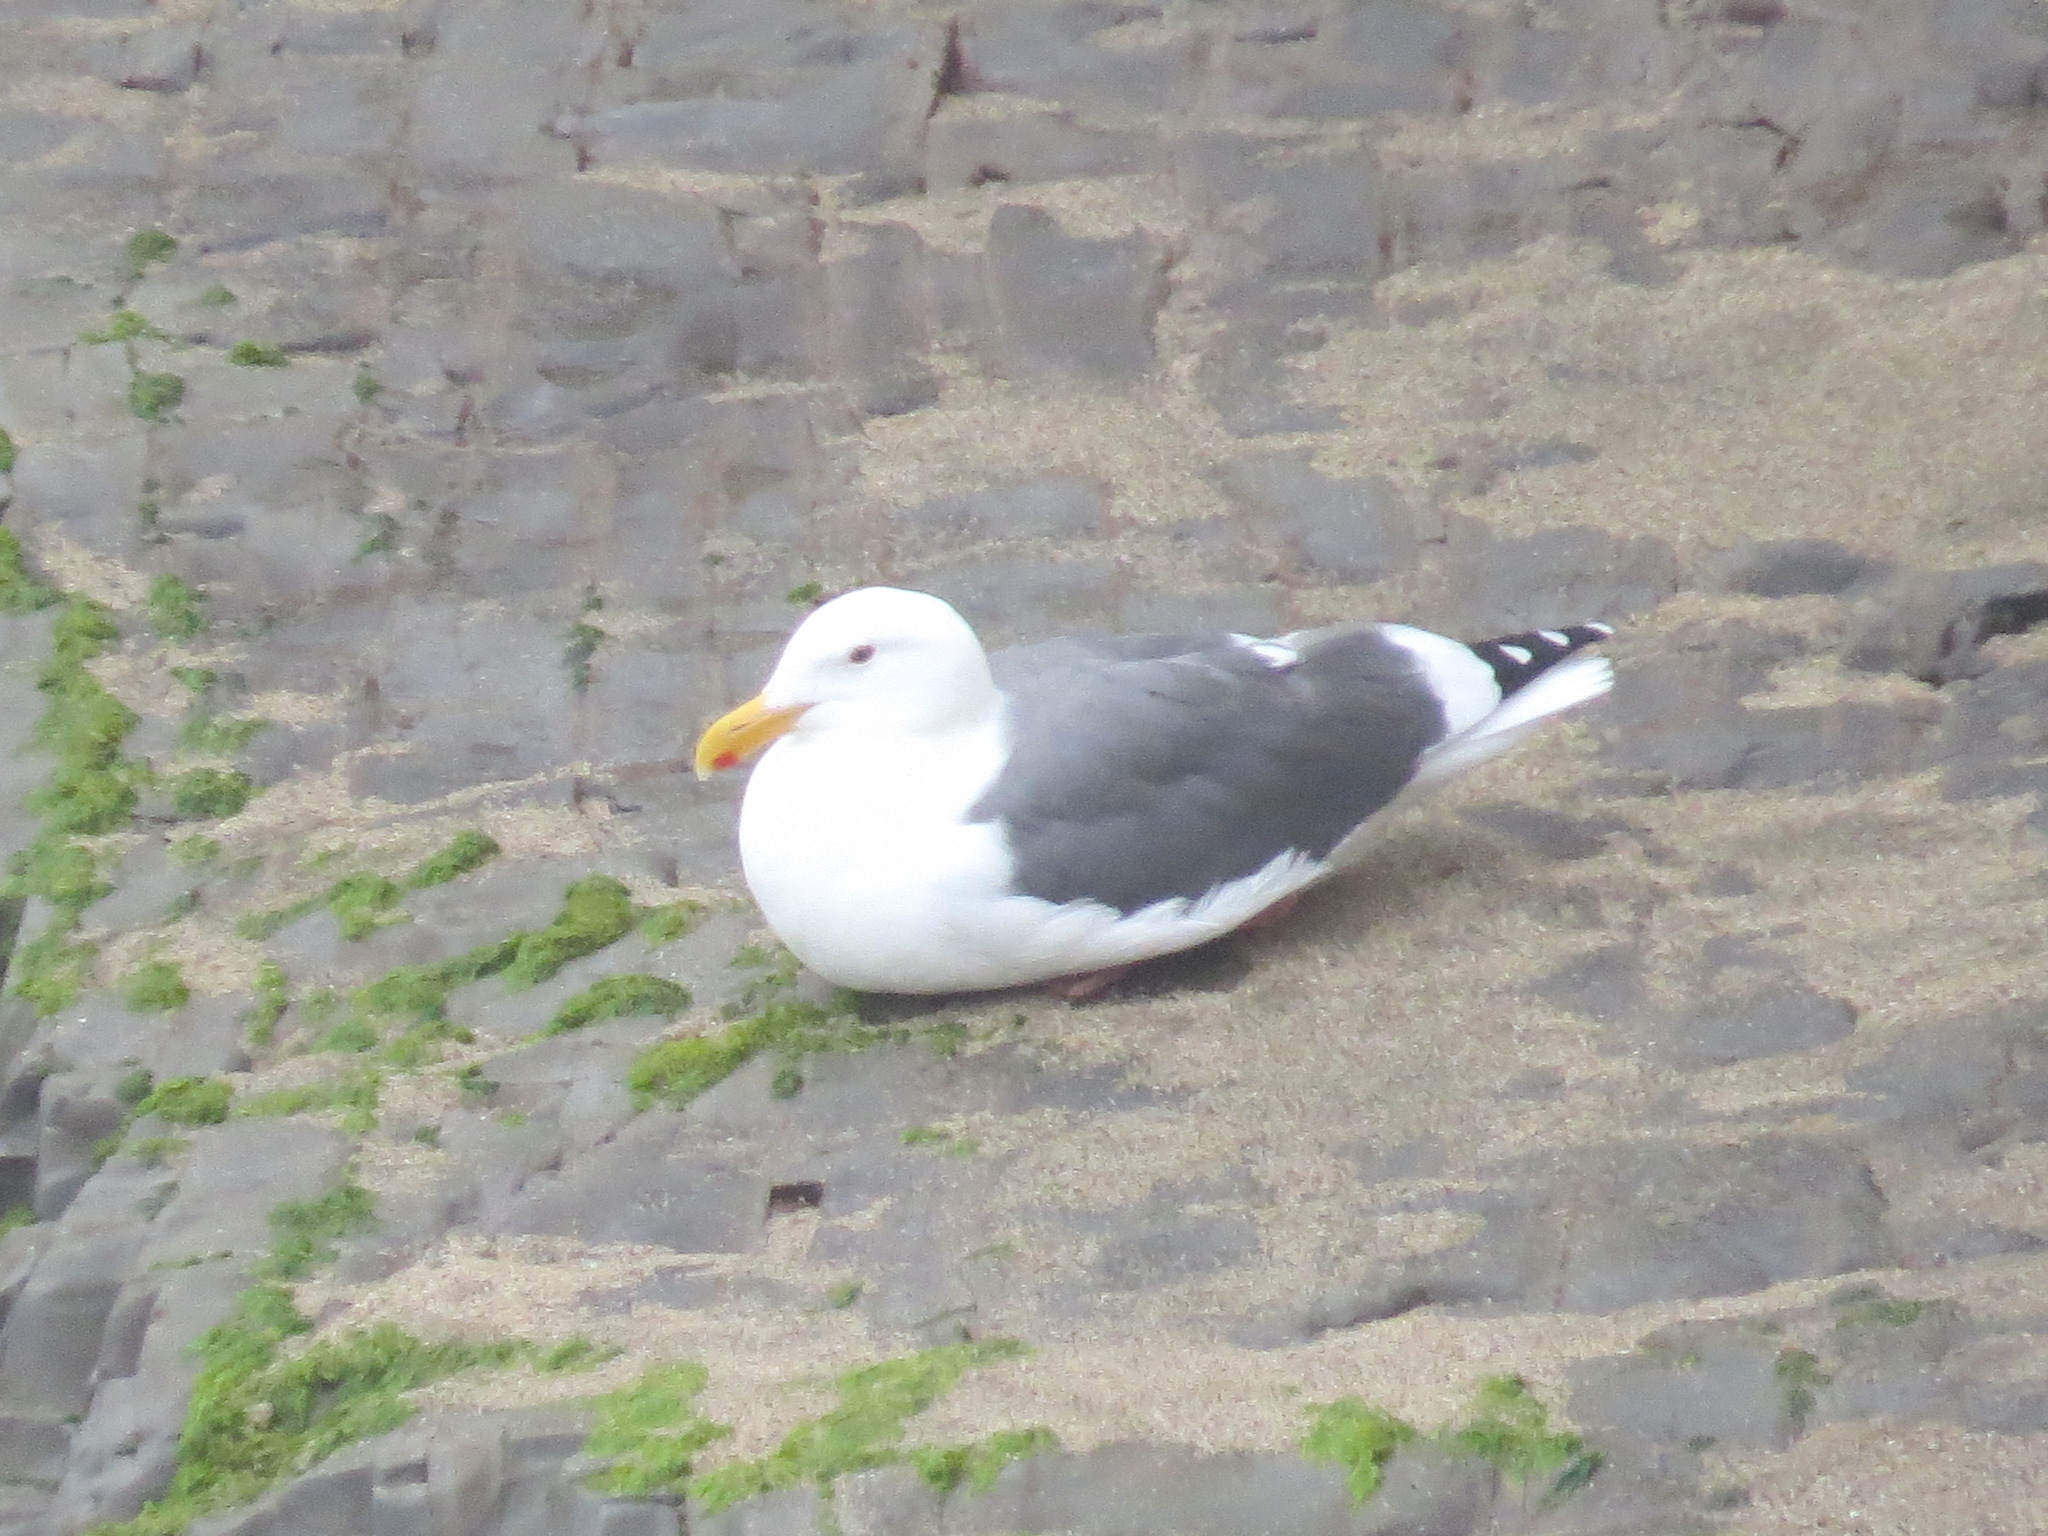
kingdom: Animalia
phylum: Chordata
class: Aves
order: Charadriiformes
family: Laridae
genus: Larus
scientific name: Larus occidentalis
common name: Western gull
